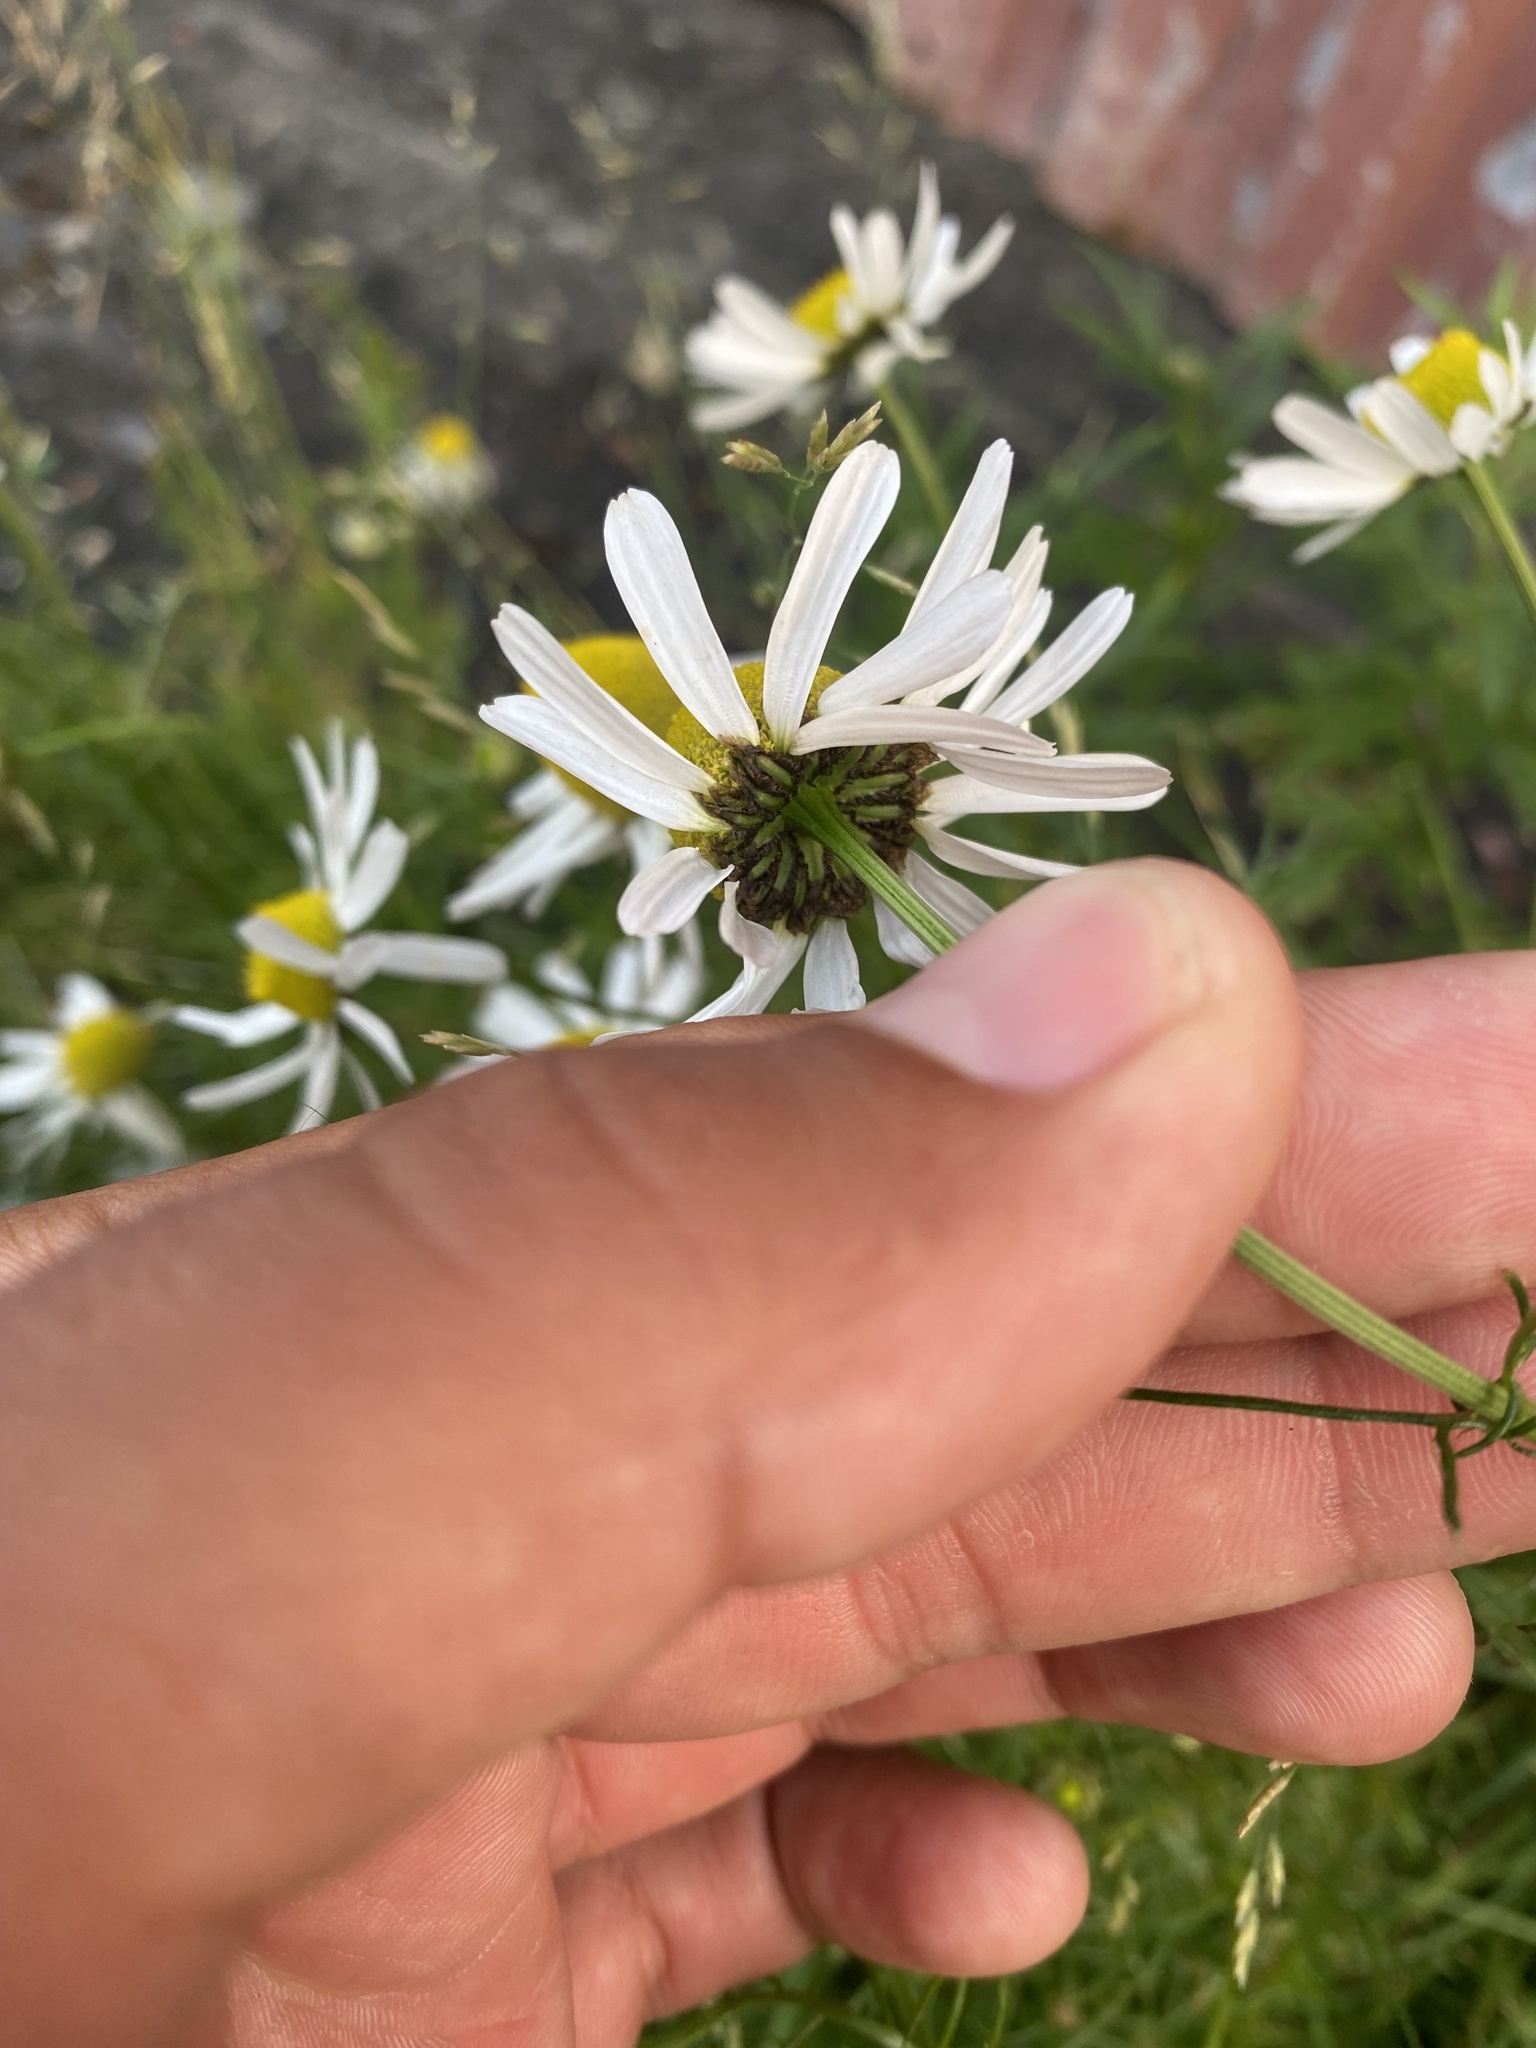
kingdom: Plantae
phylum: Tracheophyta
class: Magnoliopsida
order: Asterales
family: Asteraceae
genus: Tripleurospermum
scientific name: Tripleurospermum hookeri
